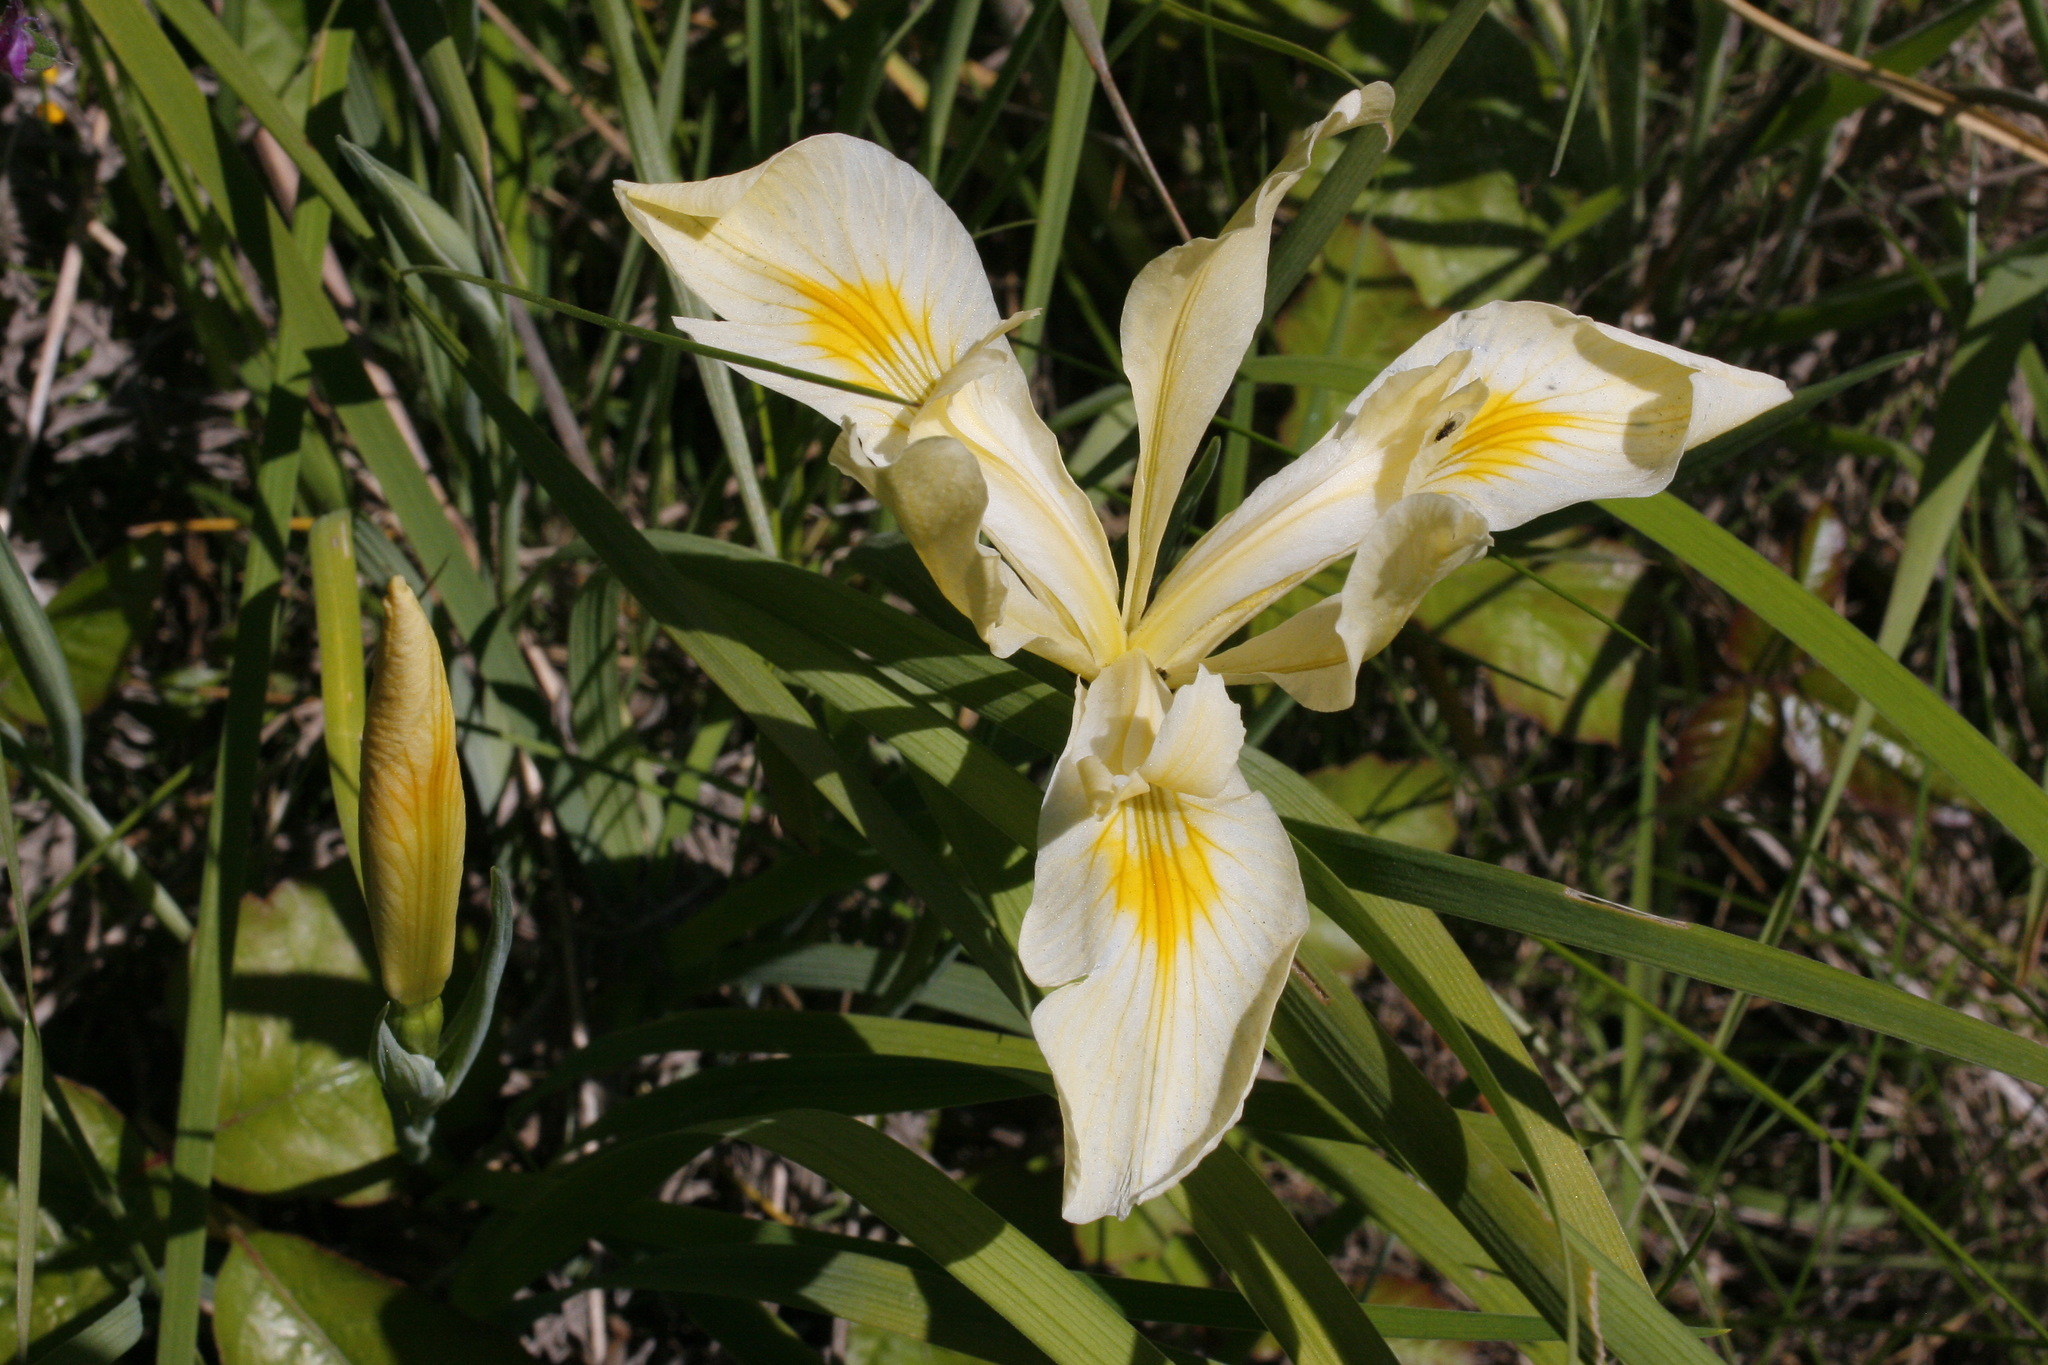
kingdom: Plantae
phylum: Tracheophyta
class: Liliopsida
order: Asparagales
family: Iridaceae
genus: Iris
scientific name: Iris tenax
